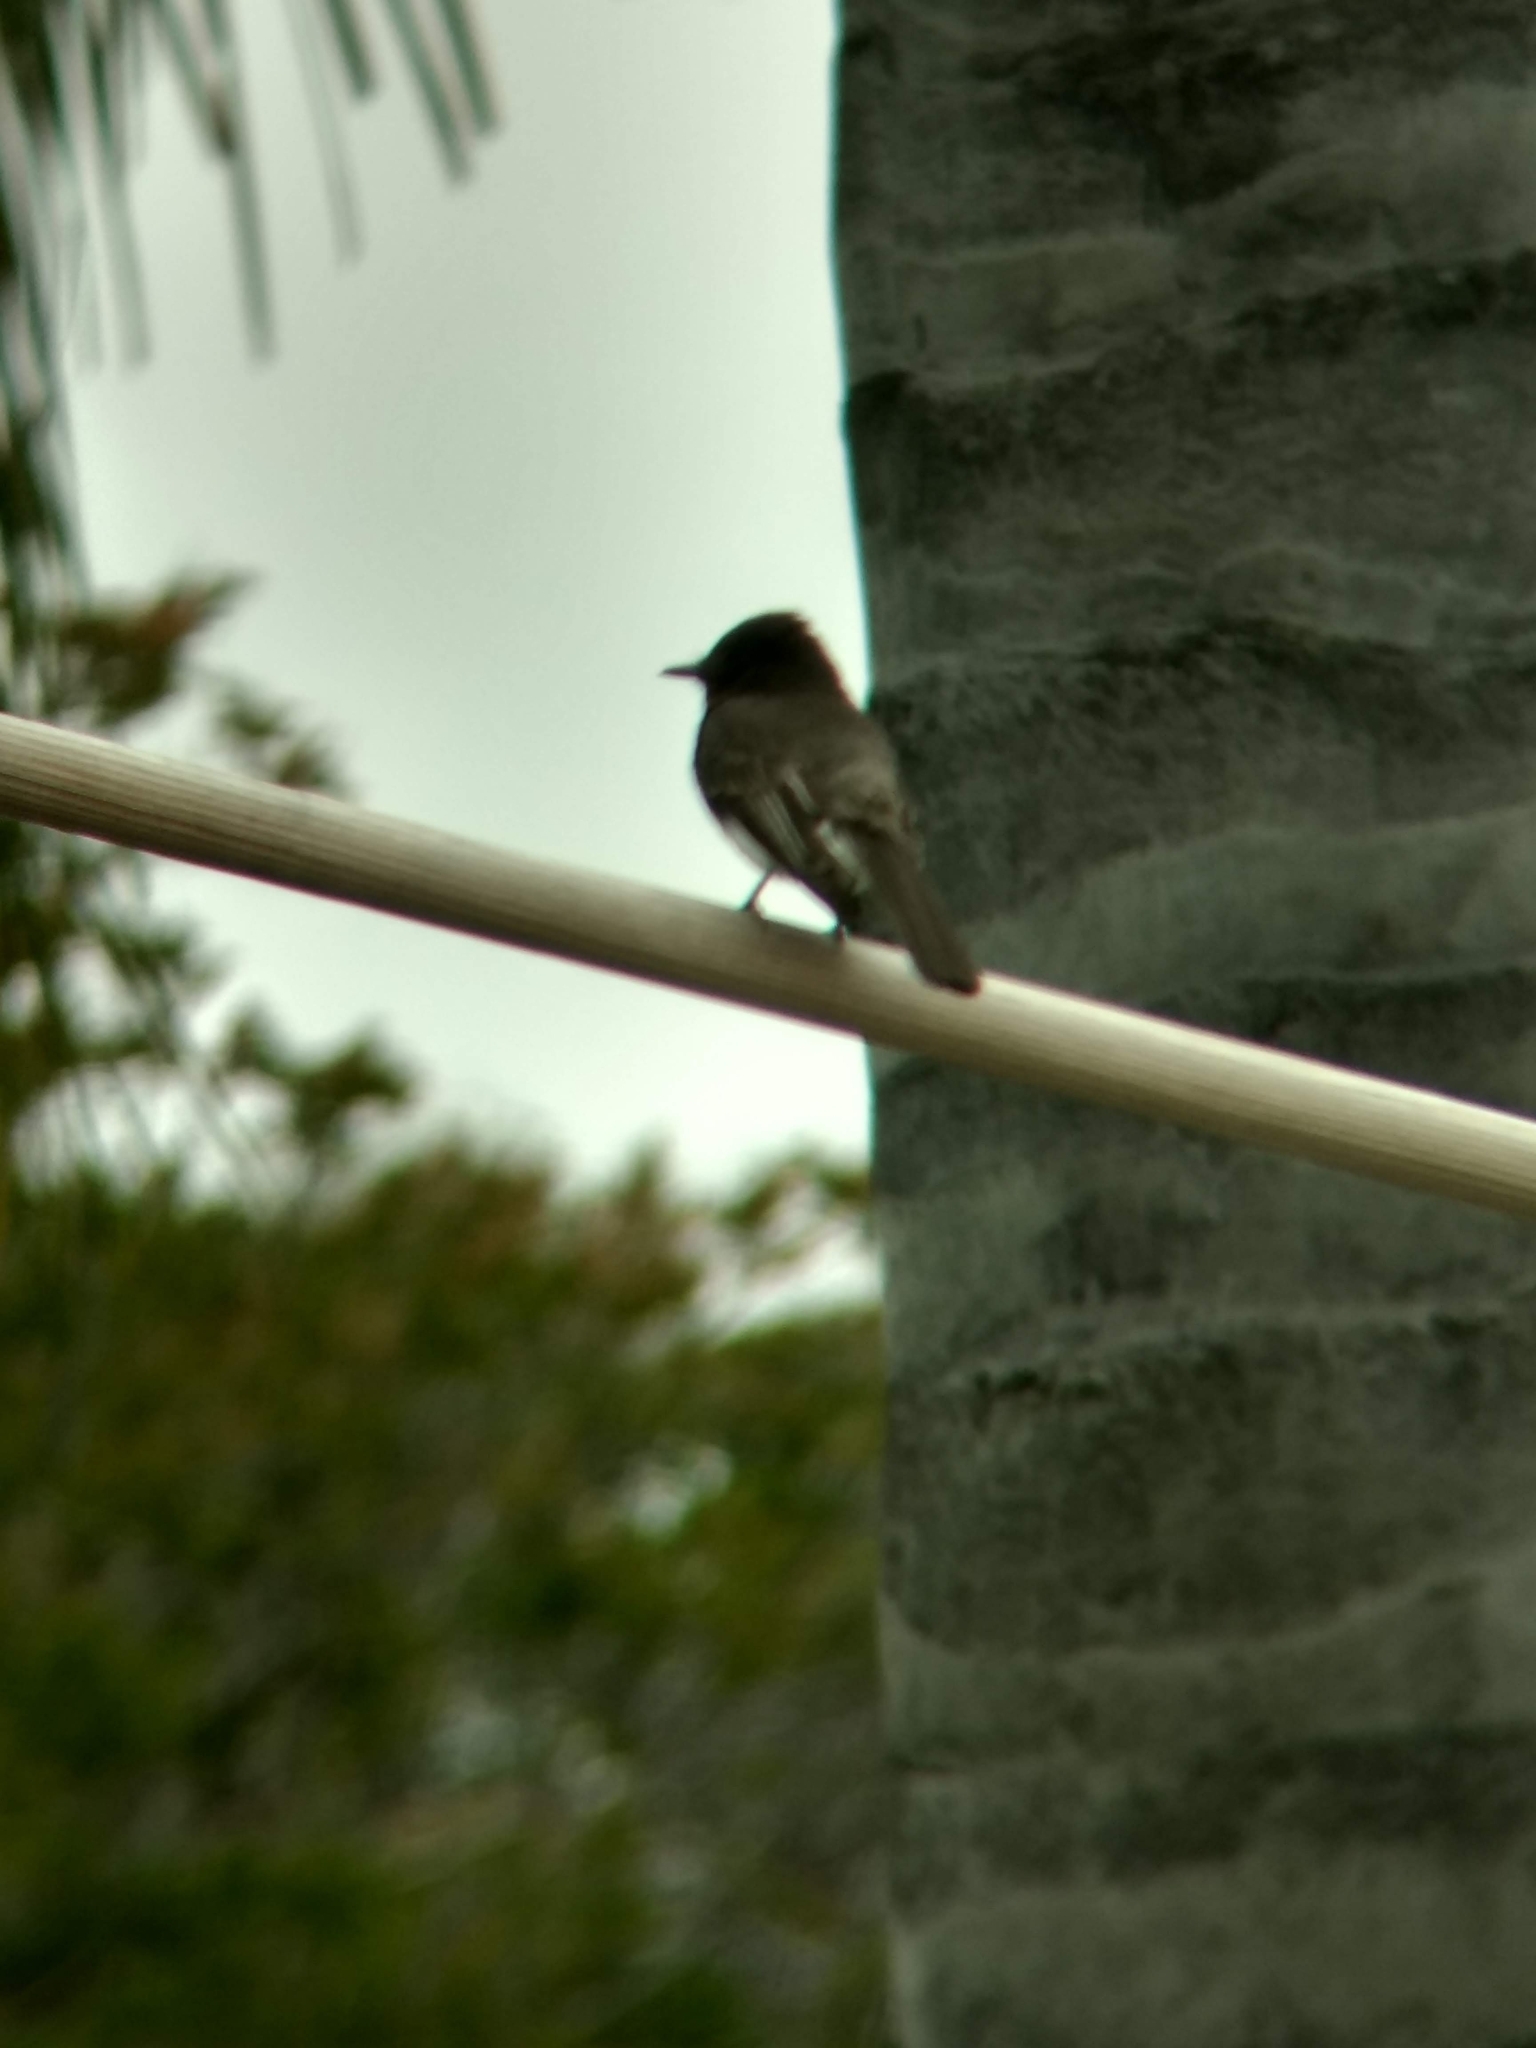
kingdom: Animalia
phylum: Chordata
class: Aves
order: Passeriformes
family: Tyrannidae
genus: Sayornis
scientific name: Sayornis nigricans
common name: Black phoebe
